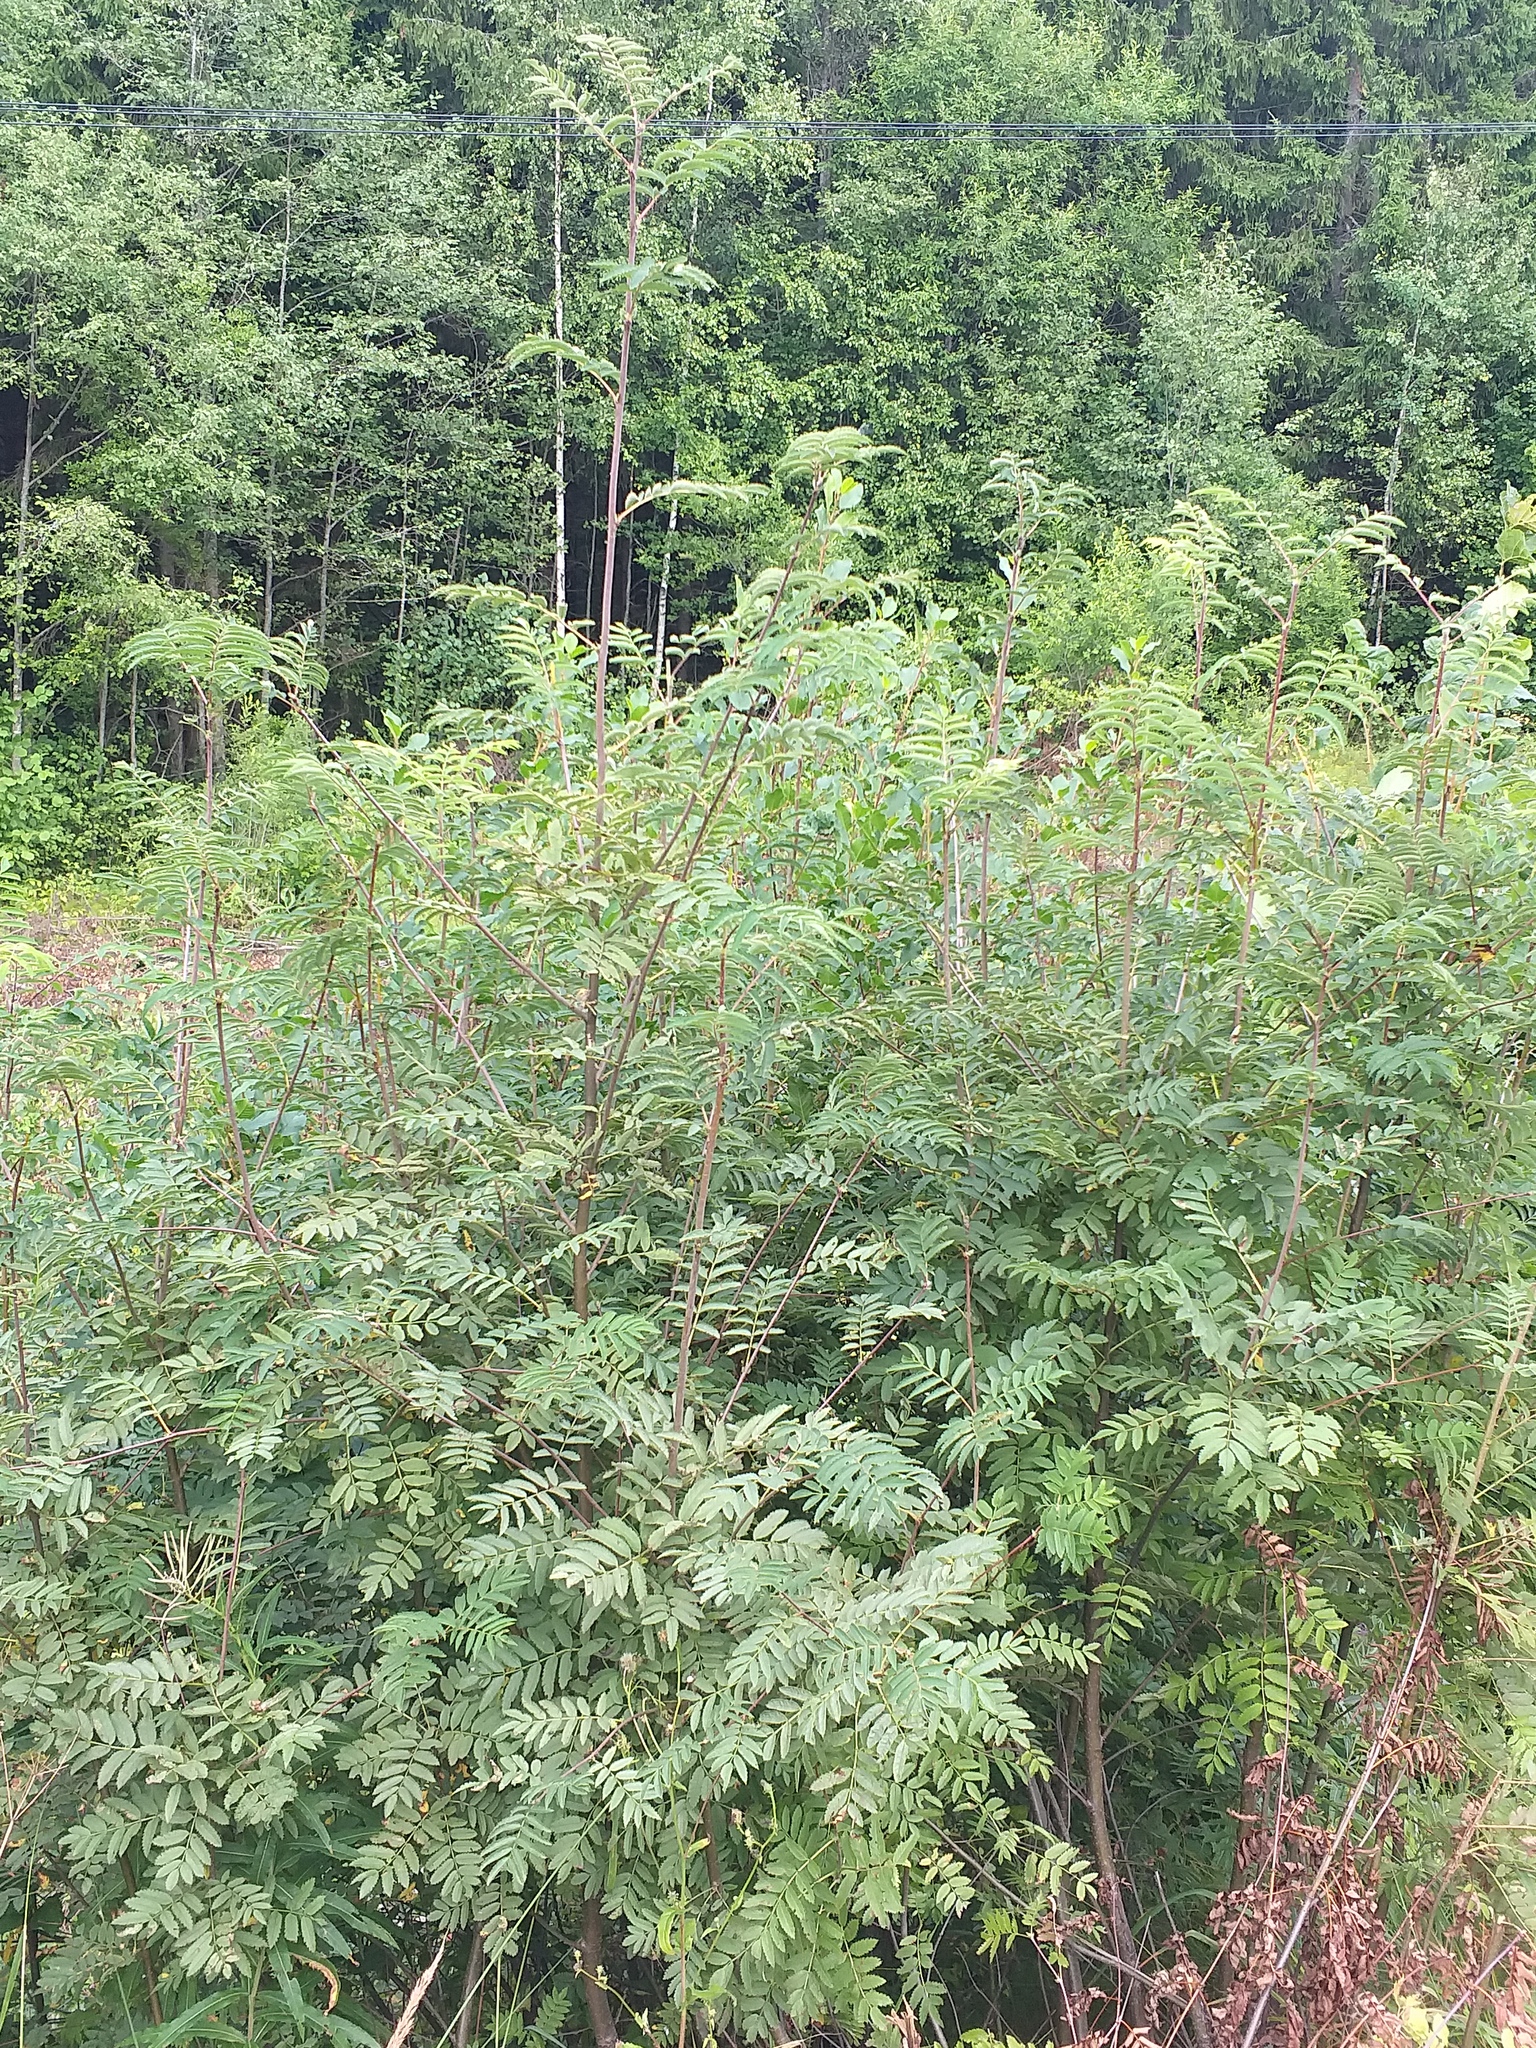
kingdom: Plantae
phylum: Tracheophyta
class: Magnoliopsida
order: Rosales
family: Rosaceae
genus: Sorbus
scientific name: Sorbus aucuparia
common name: Rowan
